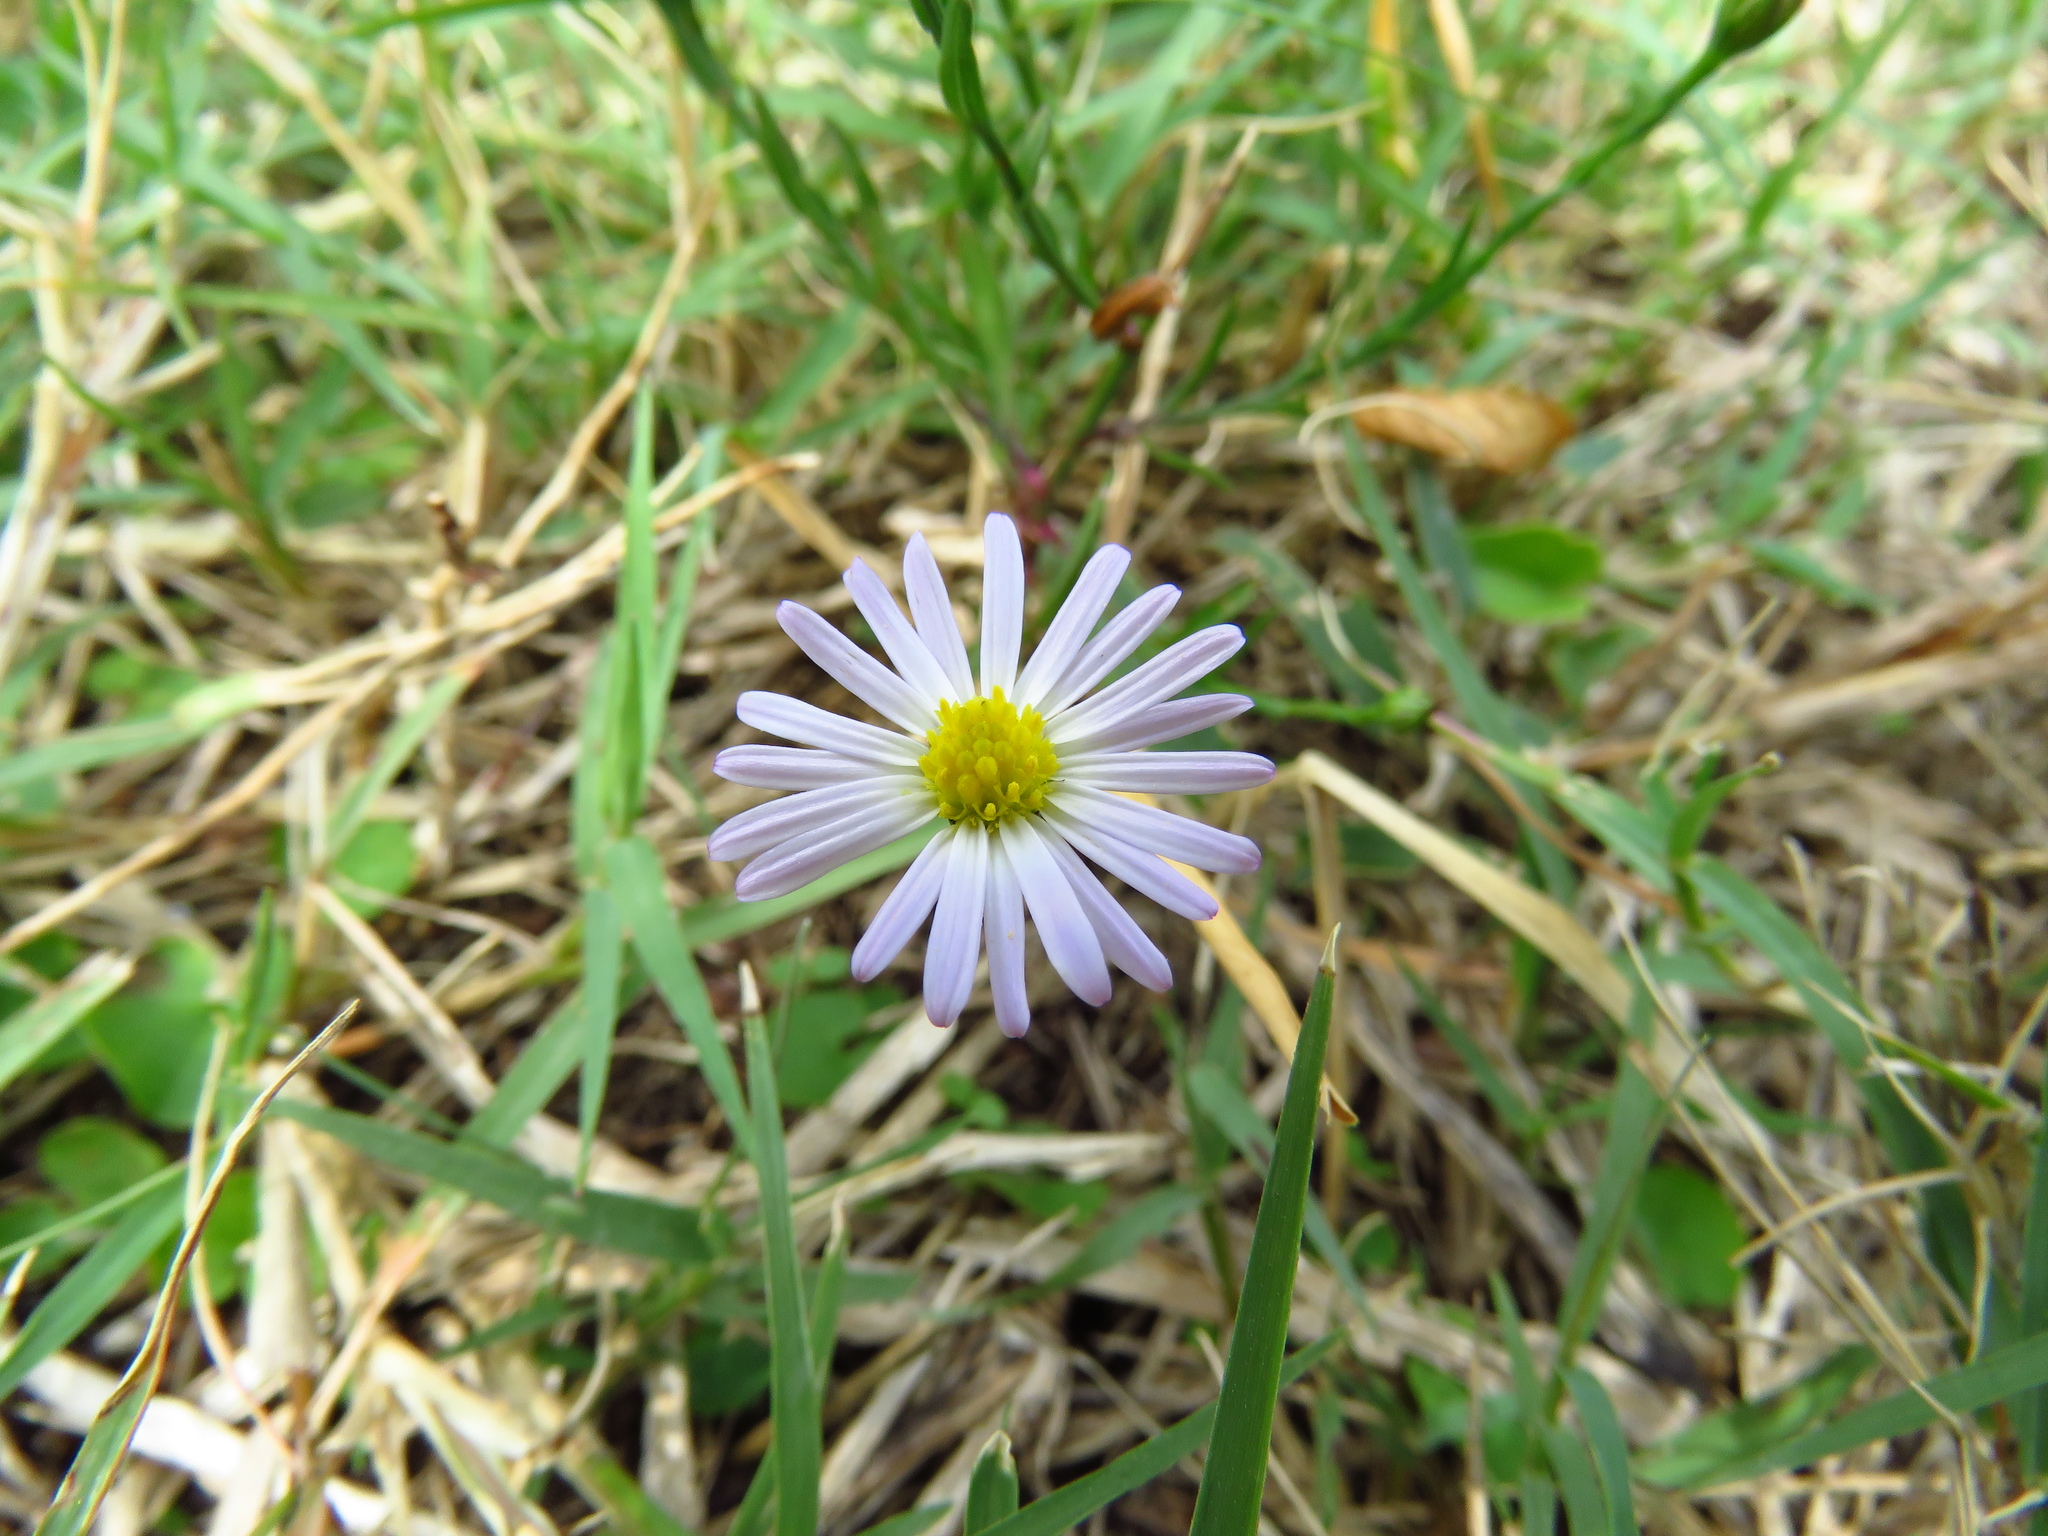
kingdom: Plantae
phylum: Tracheophyta
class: Magnoliopsida
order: Asterales
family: Asteraceae
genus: Symphyotrichum
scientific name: Symphyotrichum divaricatum
